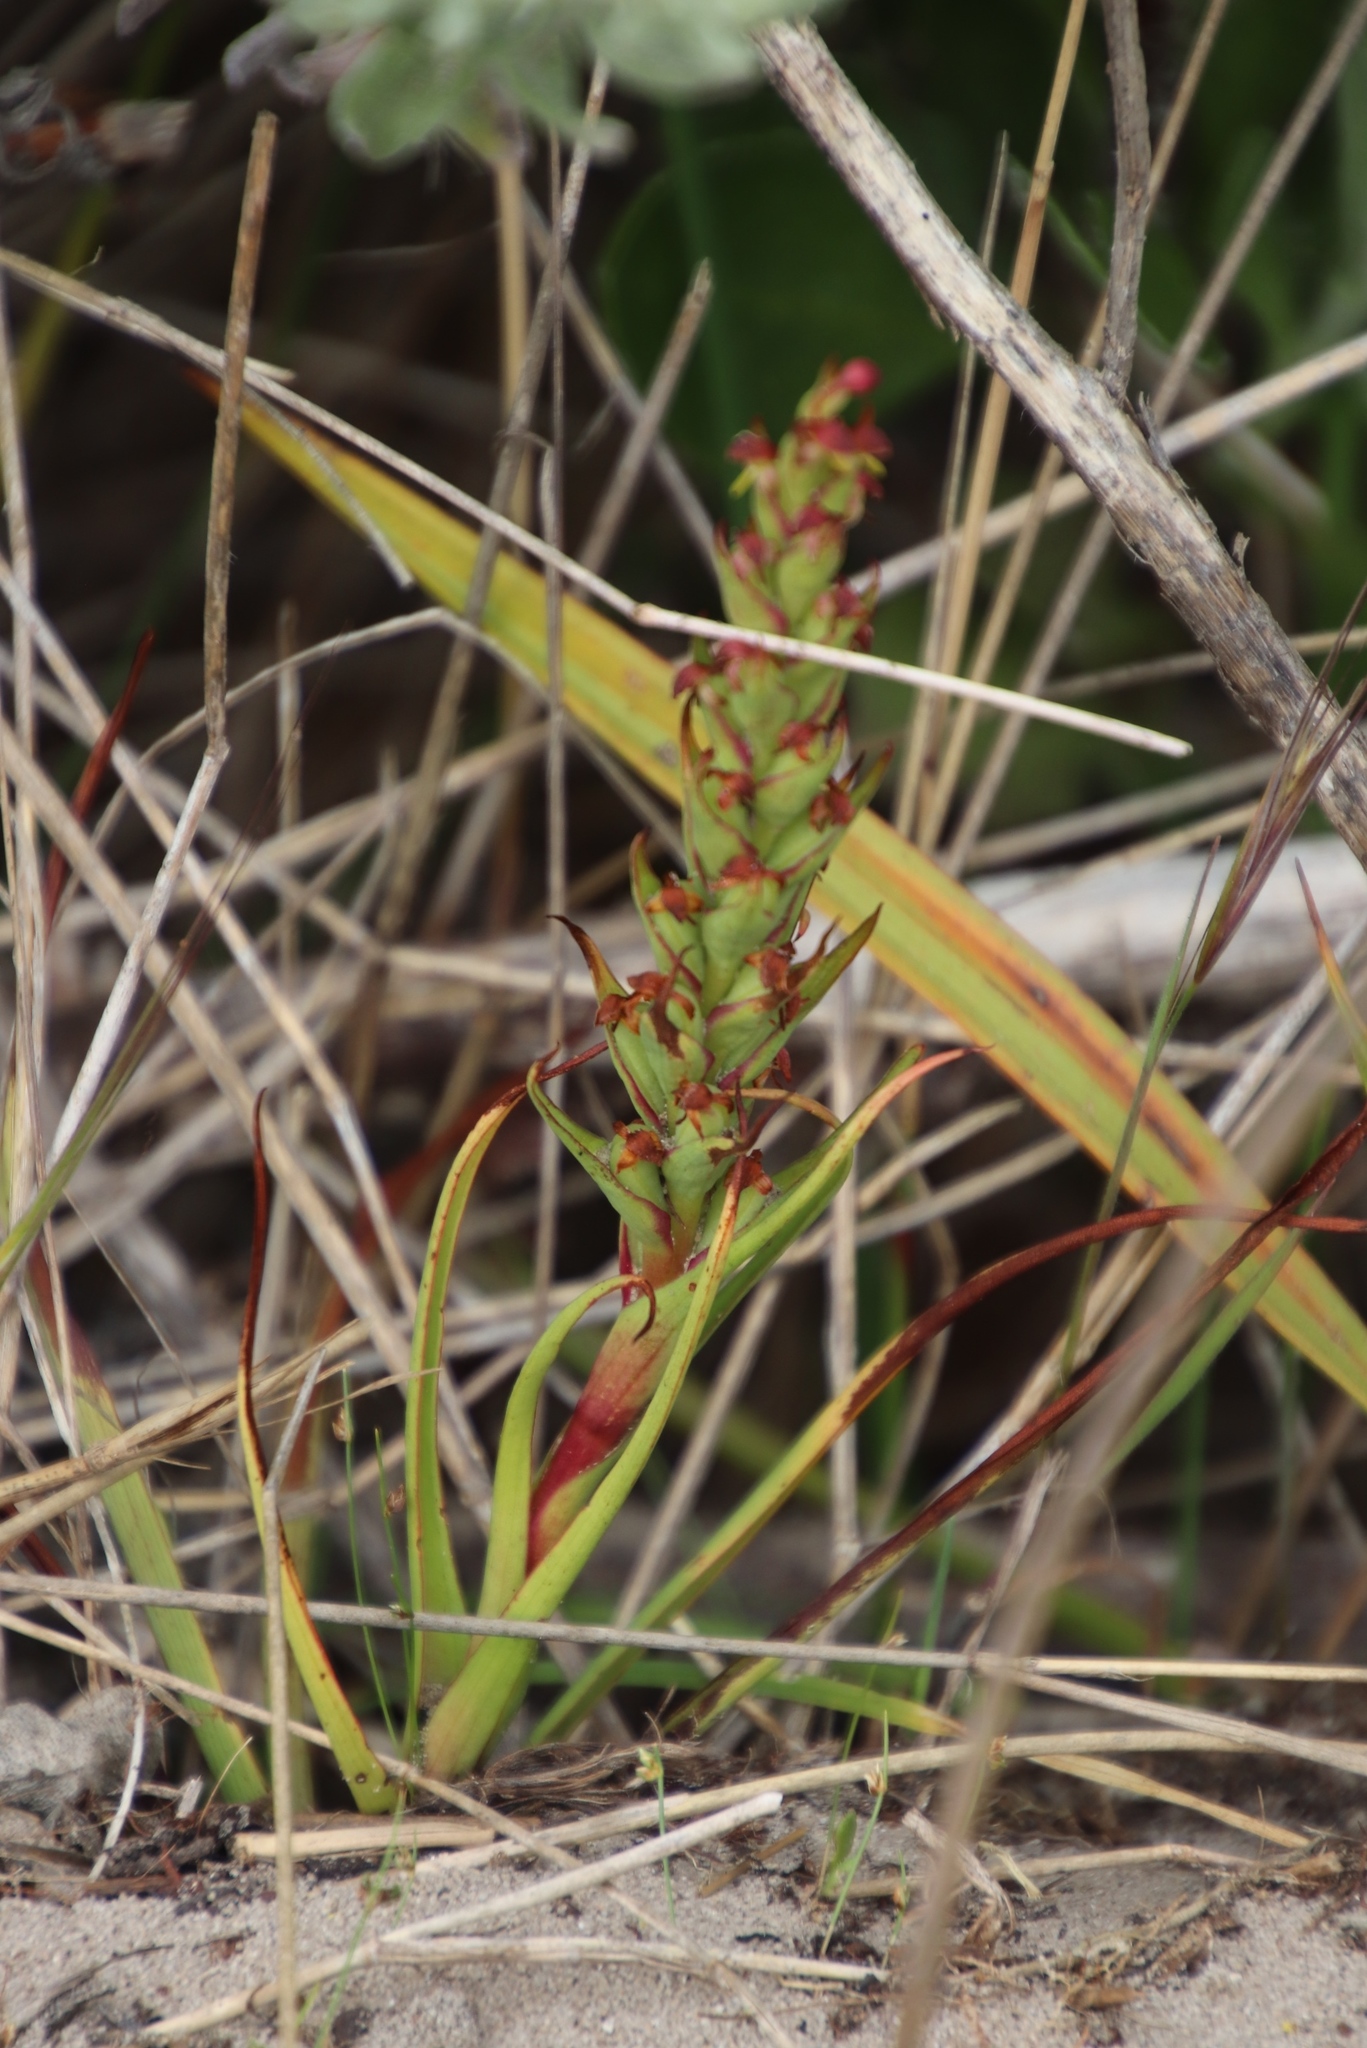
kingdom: Plantae
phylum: Tracheophyta
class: Liliopsida
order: Asparagales
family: Orchidaceae
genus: Disa
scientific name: Disa bracteata
